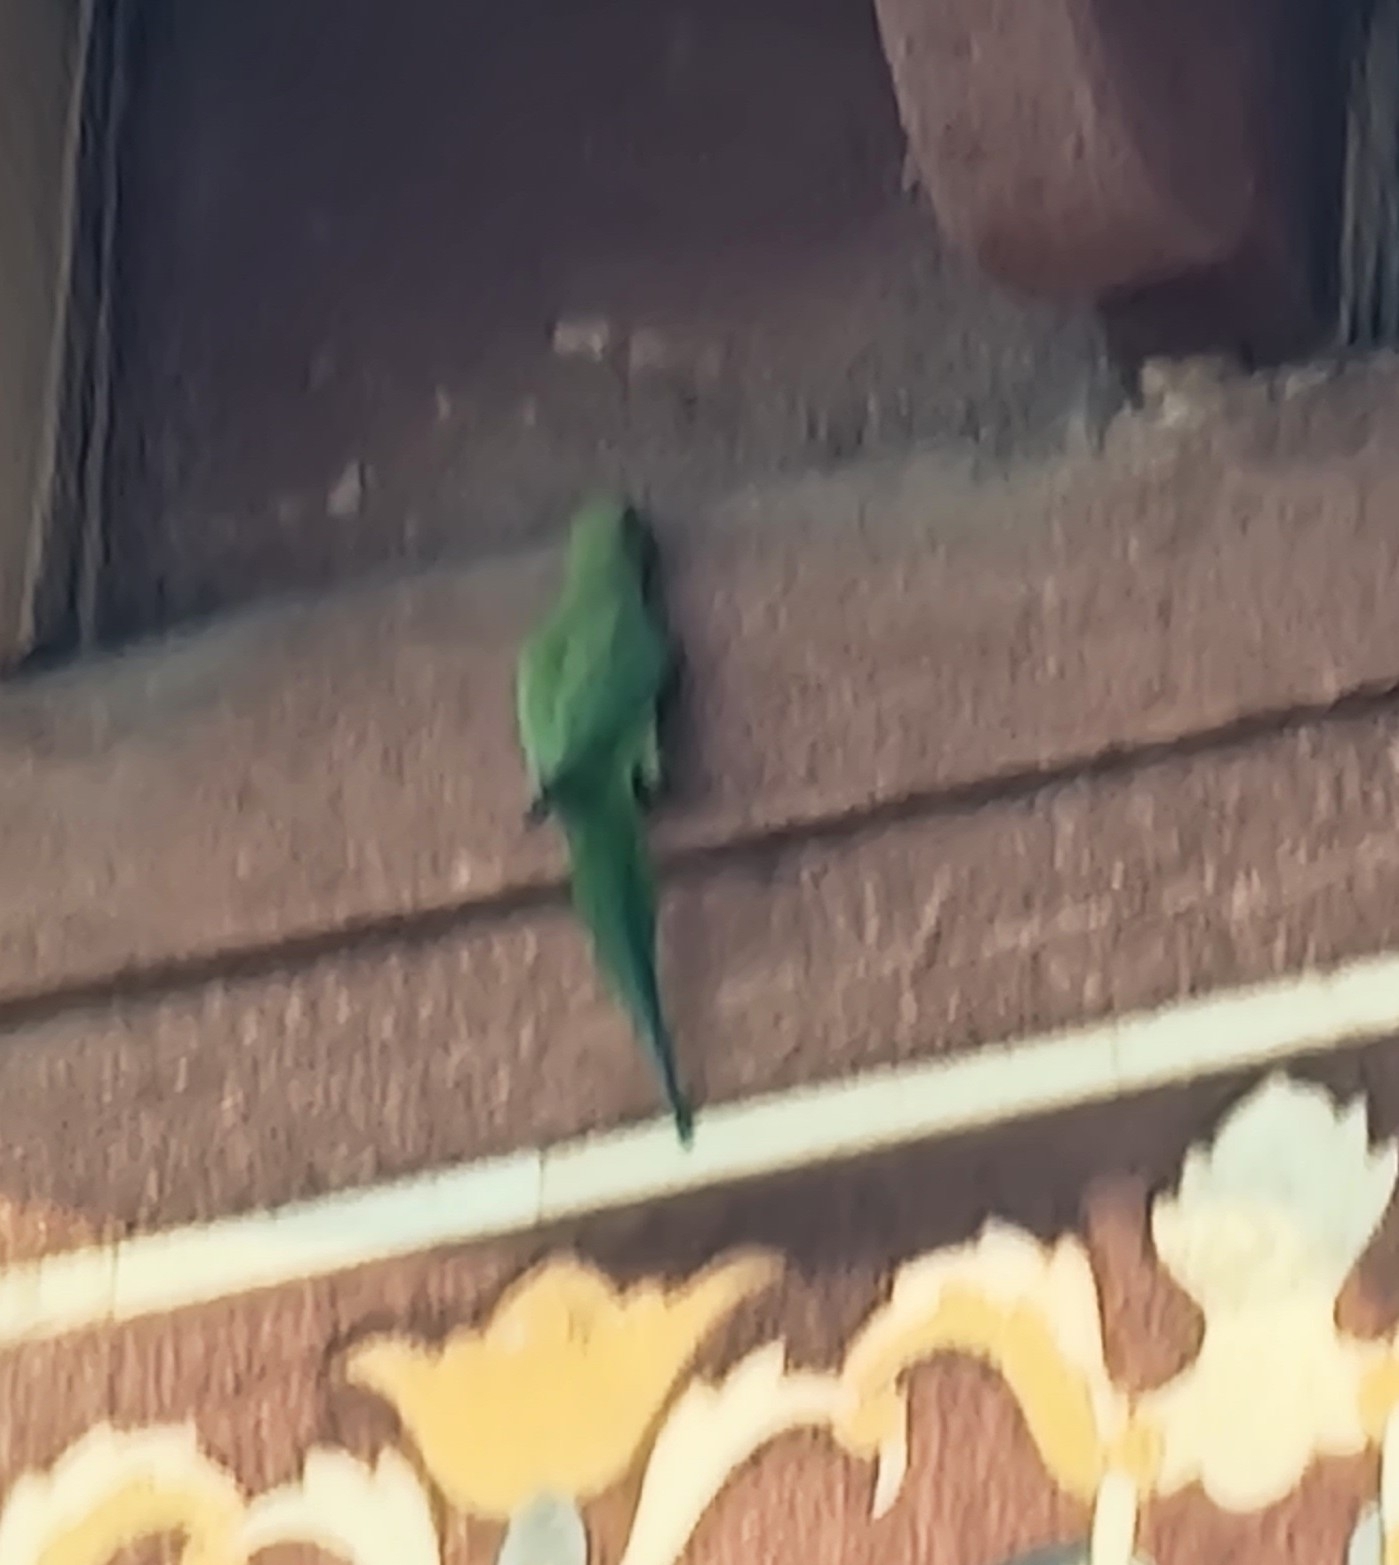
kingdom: Animalia
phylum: Chordata
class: Aves
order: Psittaciformes
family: Psittacidae
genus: Psittacula
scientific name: Psittacula krameri
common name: Rose-ringed parakeet
